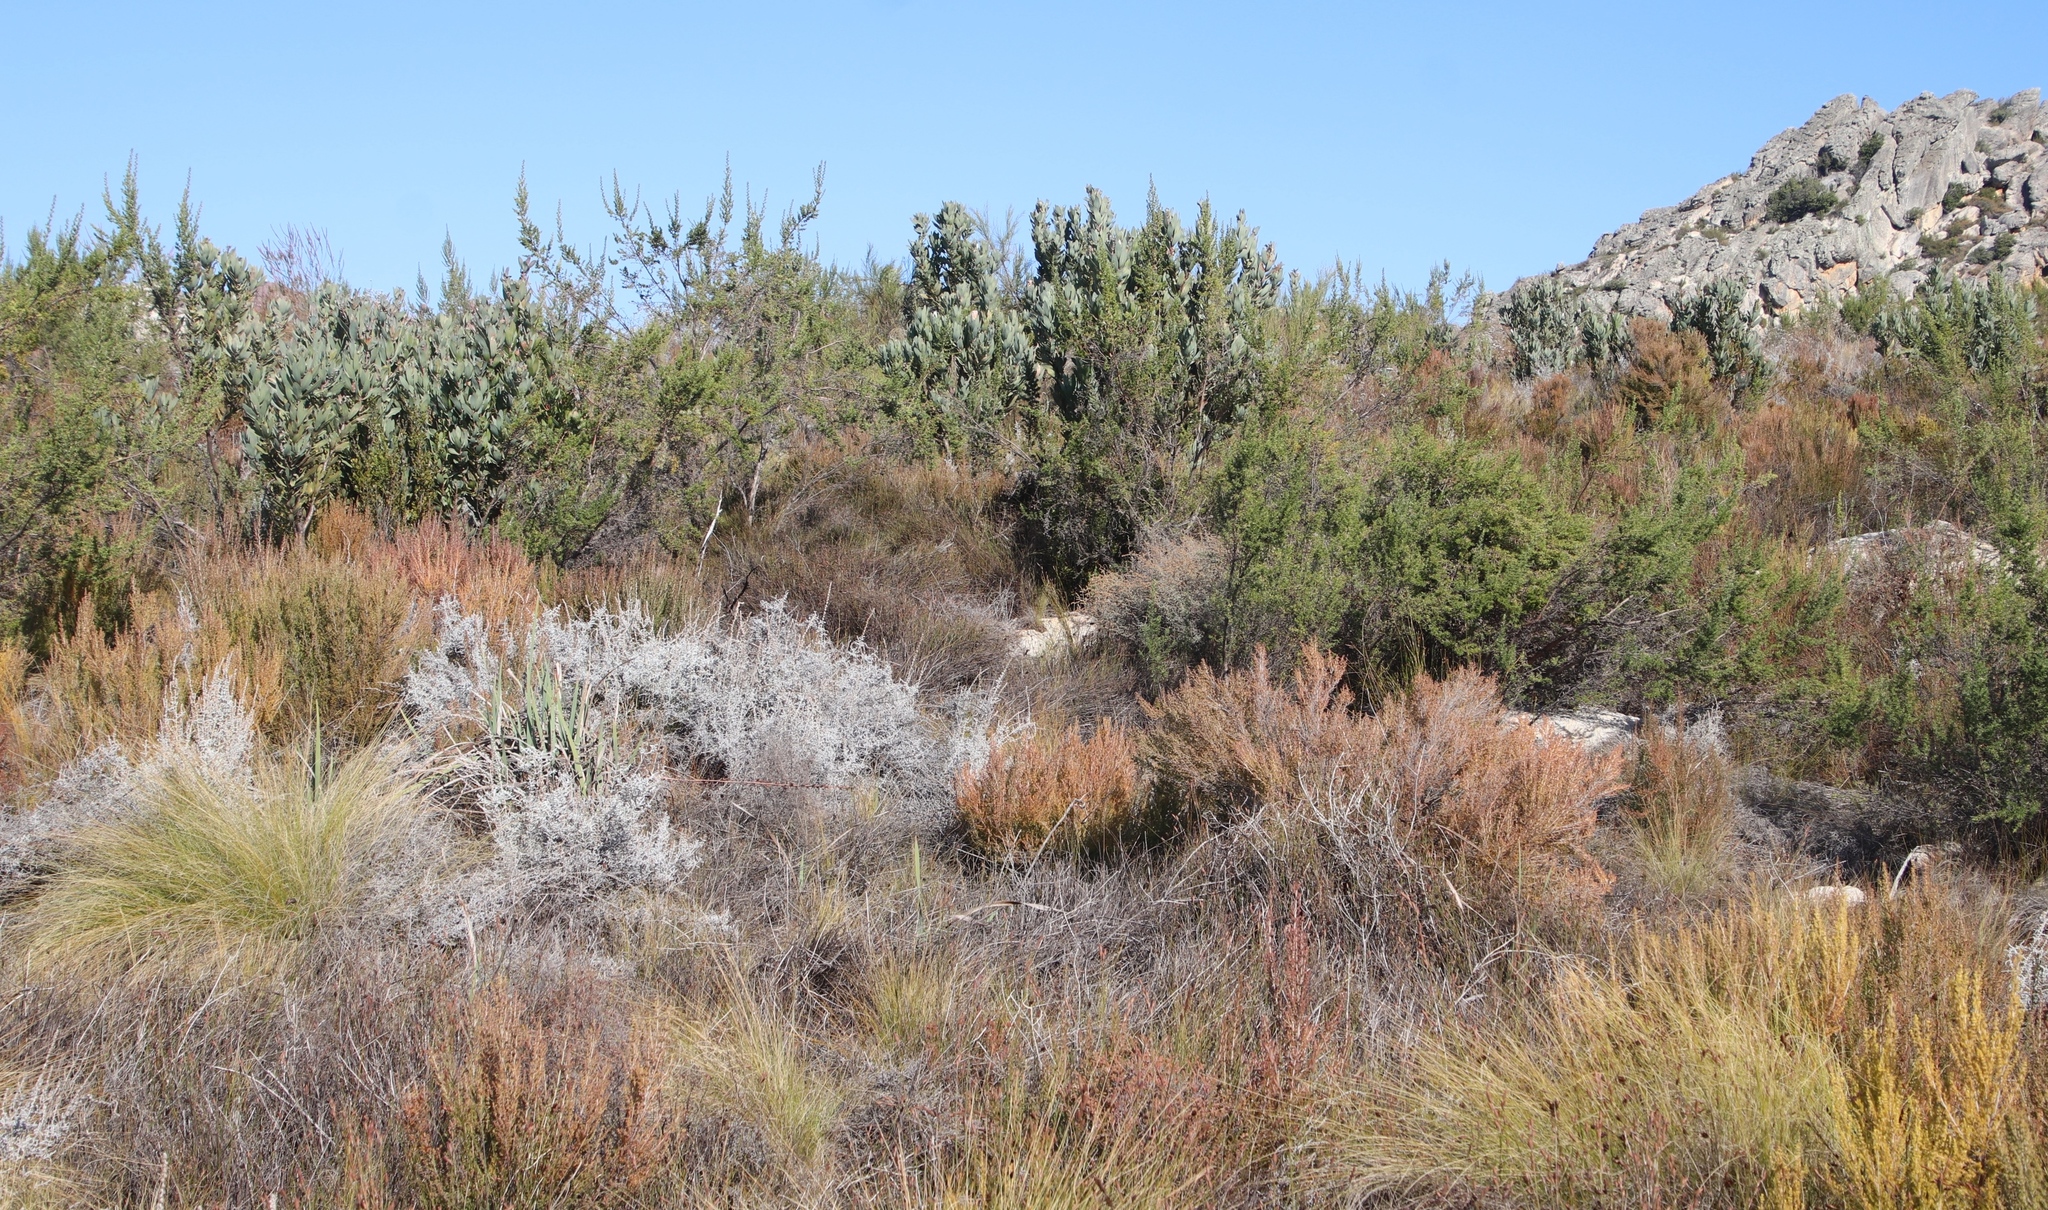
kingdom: Plantae
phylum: Tracheophyta
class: Magnoliopsida
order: Proteales
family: Proteaceae
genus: Protea
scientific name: Protea laurifolia
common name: Grey-leaf sugarbsh
